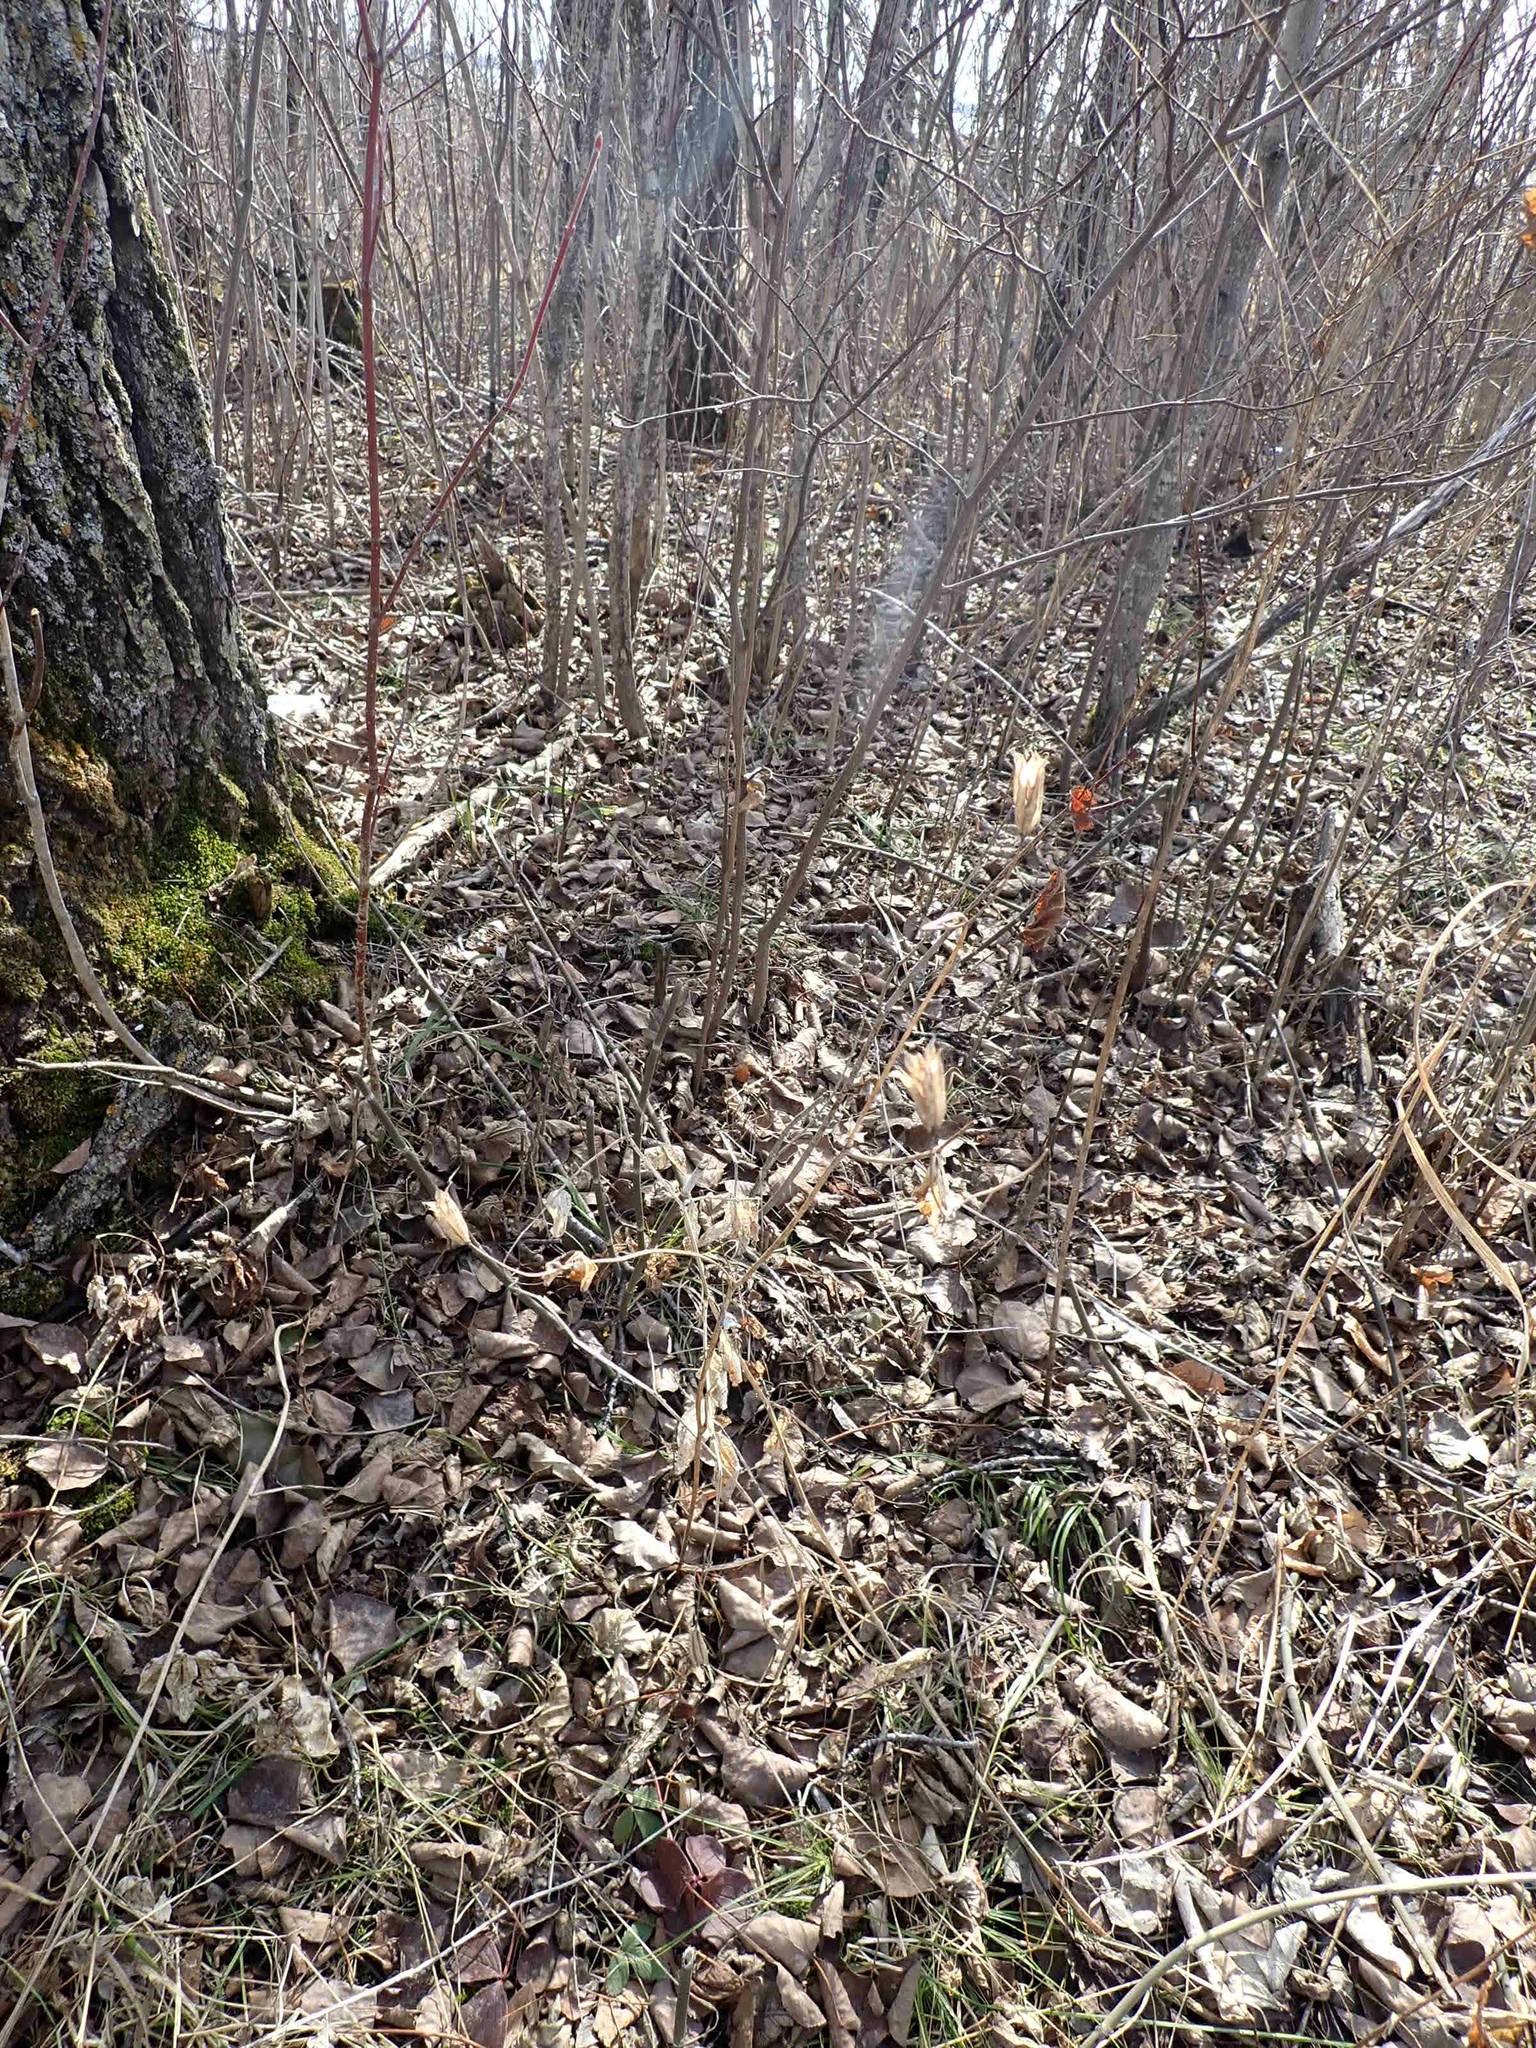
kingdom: Plantae
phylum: Tracheophyta
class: Magnoliopsida
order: Ranunculales
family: Ranunculaceae
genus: Aquilegia
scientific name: Aquilegia canadensis
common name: American columbine
